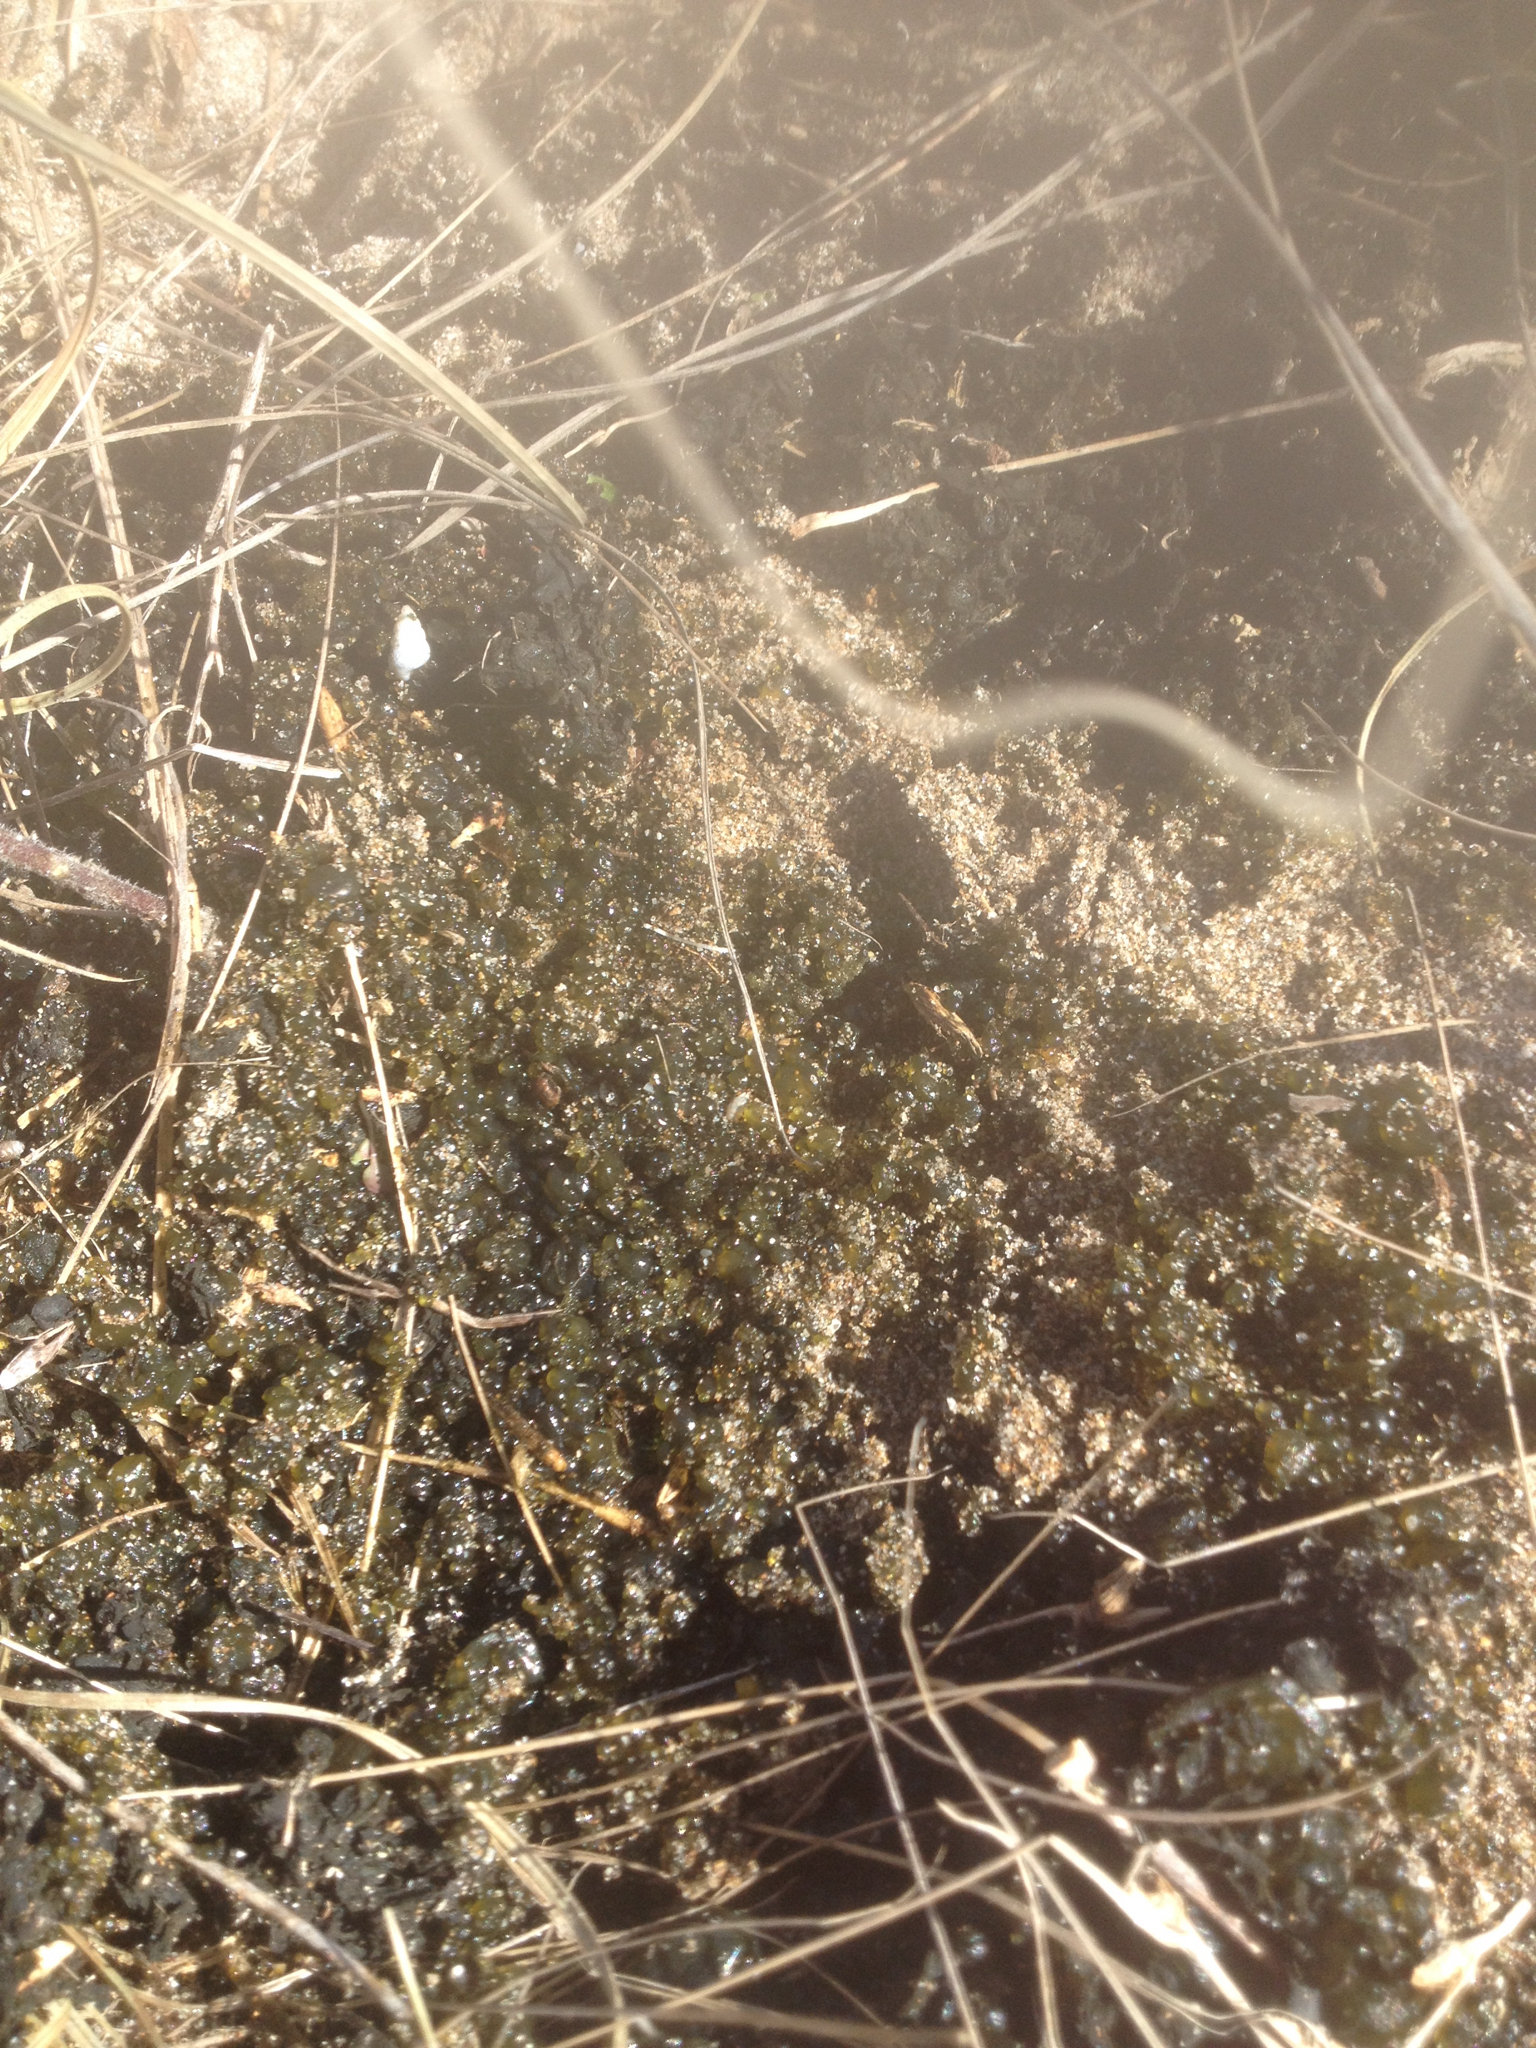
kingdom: Bacteria
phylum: Cyanobacteria
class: Cyanobacteriia
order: Cyanobacteriales
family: Nostocaceae
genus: Nostoc
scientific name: Nostoc
